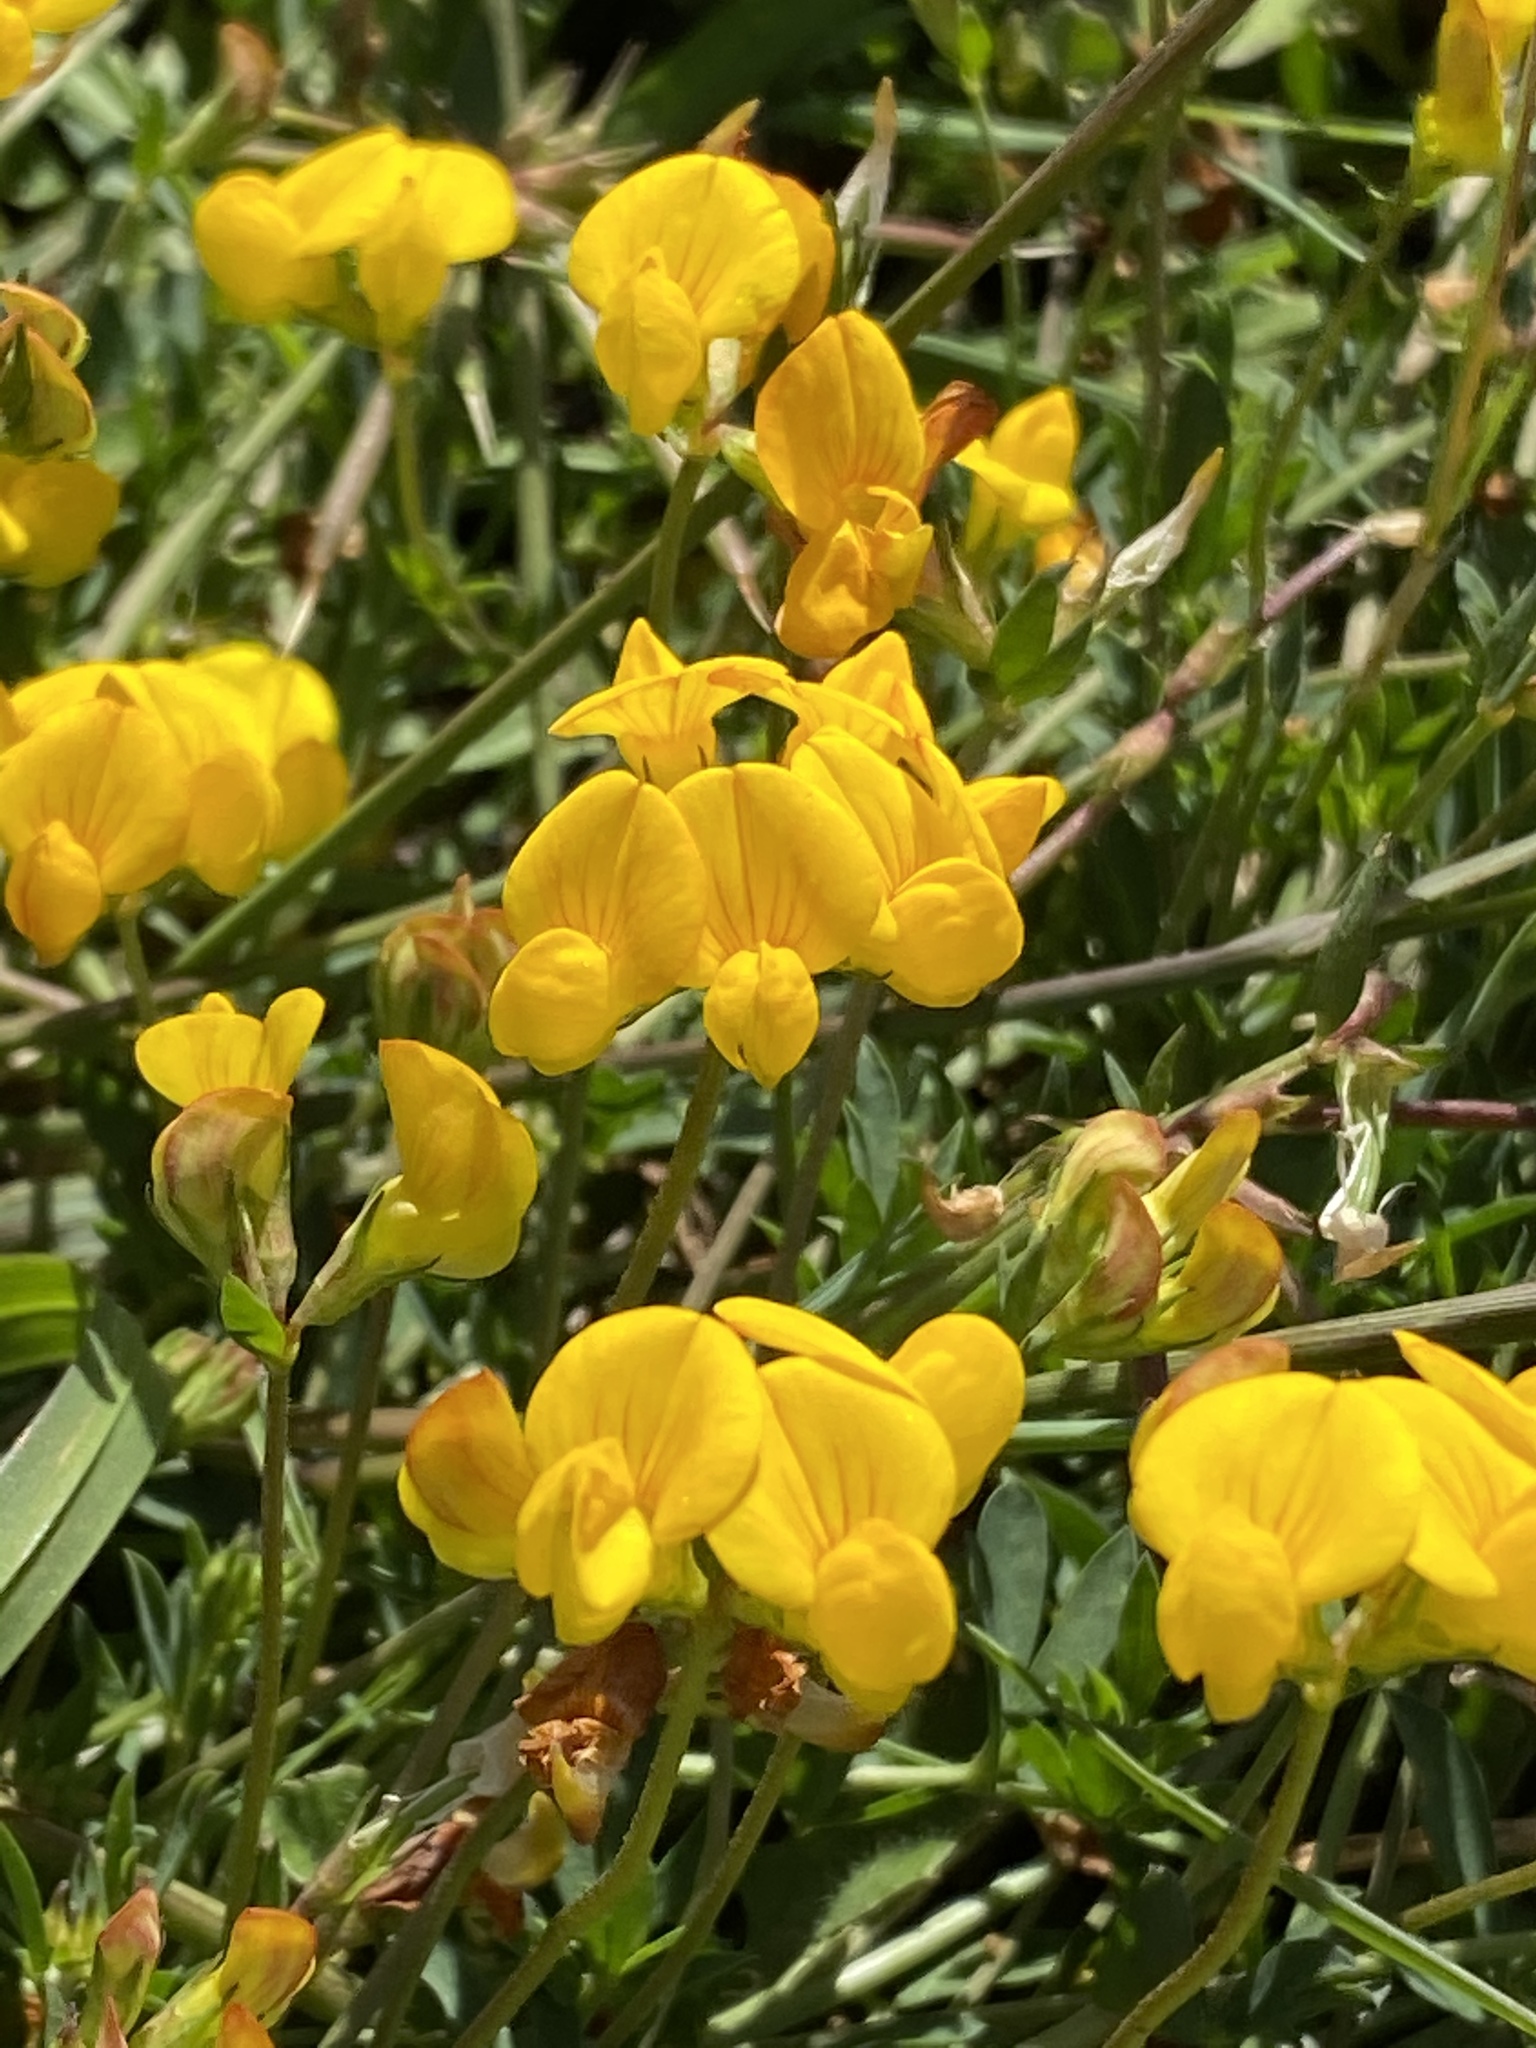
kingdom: Plantae
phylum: Tracheophyta
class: Magnoliopsida
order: Fabales
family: Fabaceae
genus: Lotus
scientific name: Lotus corniculatus
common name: Common bird's-foot-trefoil
